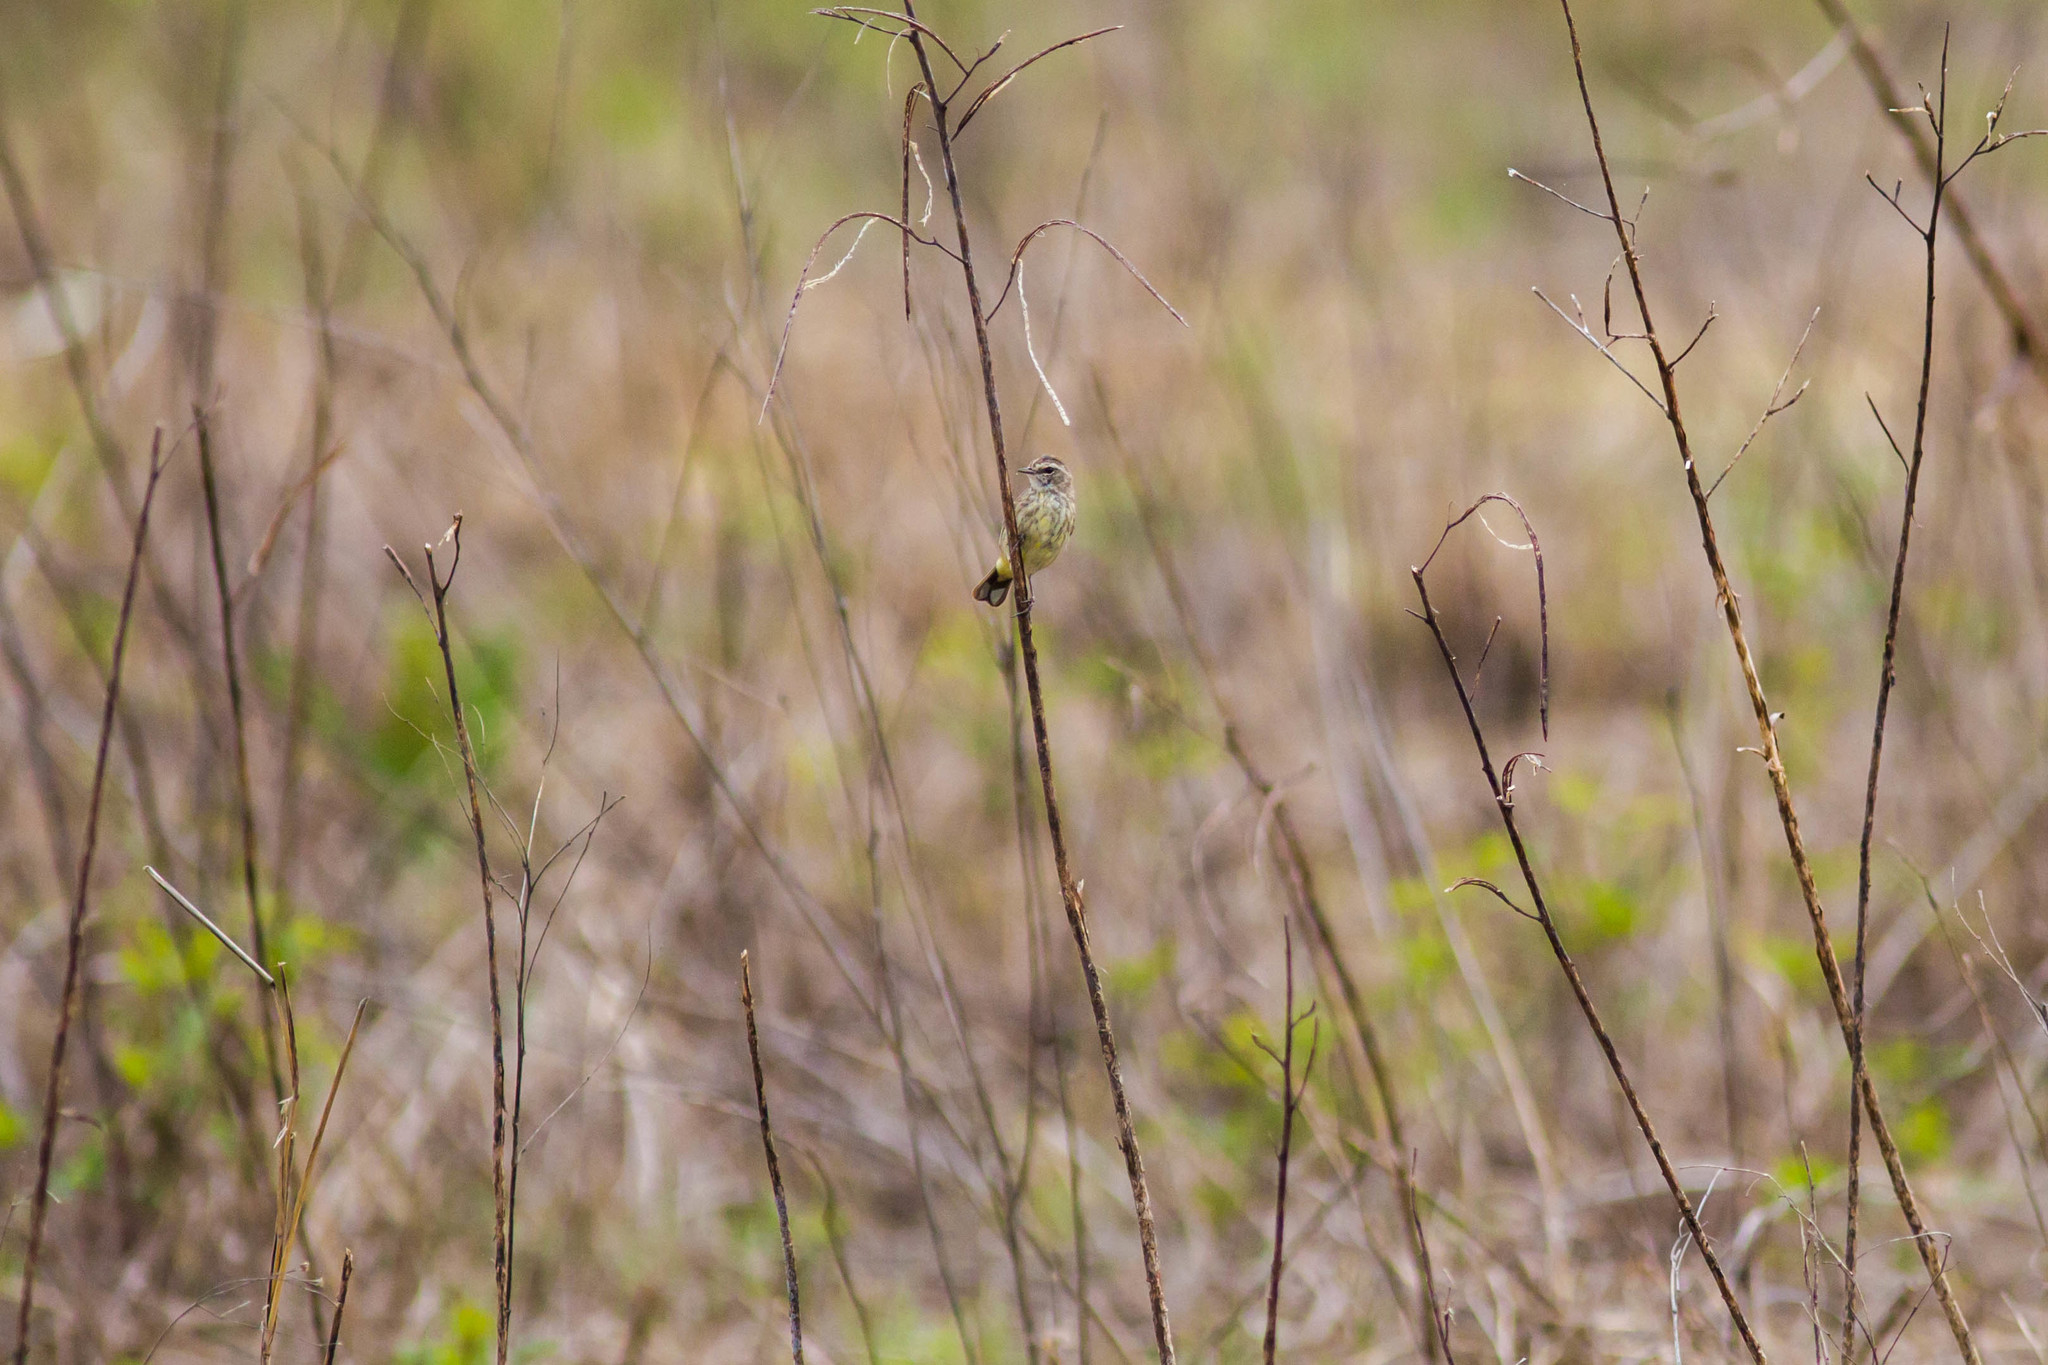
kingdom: Animalia
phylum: Chordata
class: Aves
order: Passeriformes
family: Parulidae
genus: Setophaga
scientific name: Setophaga palmarum
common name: Palm warbler
